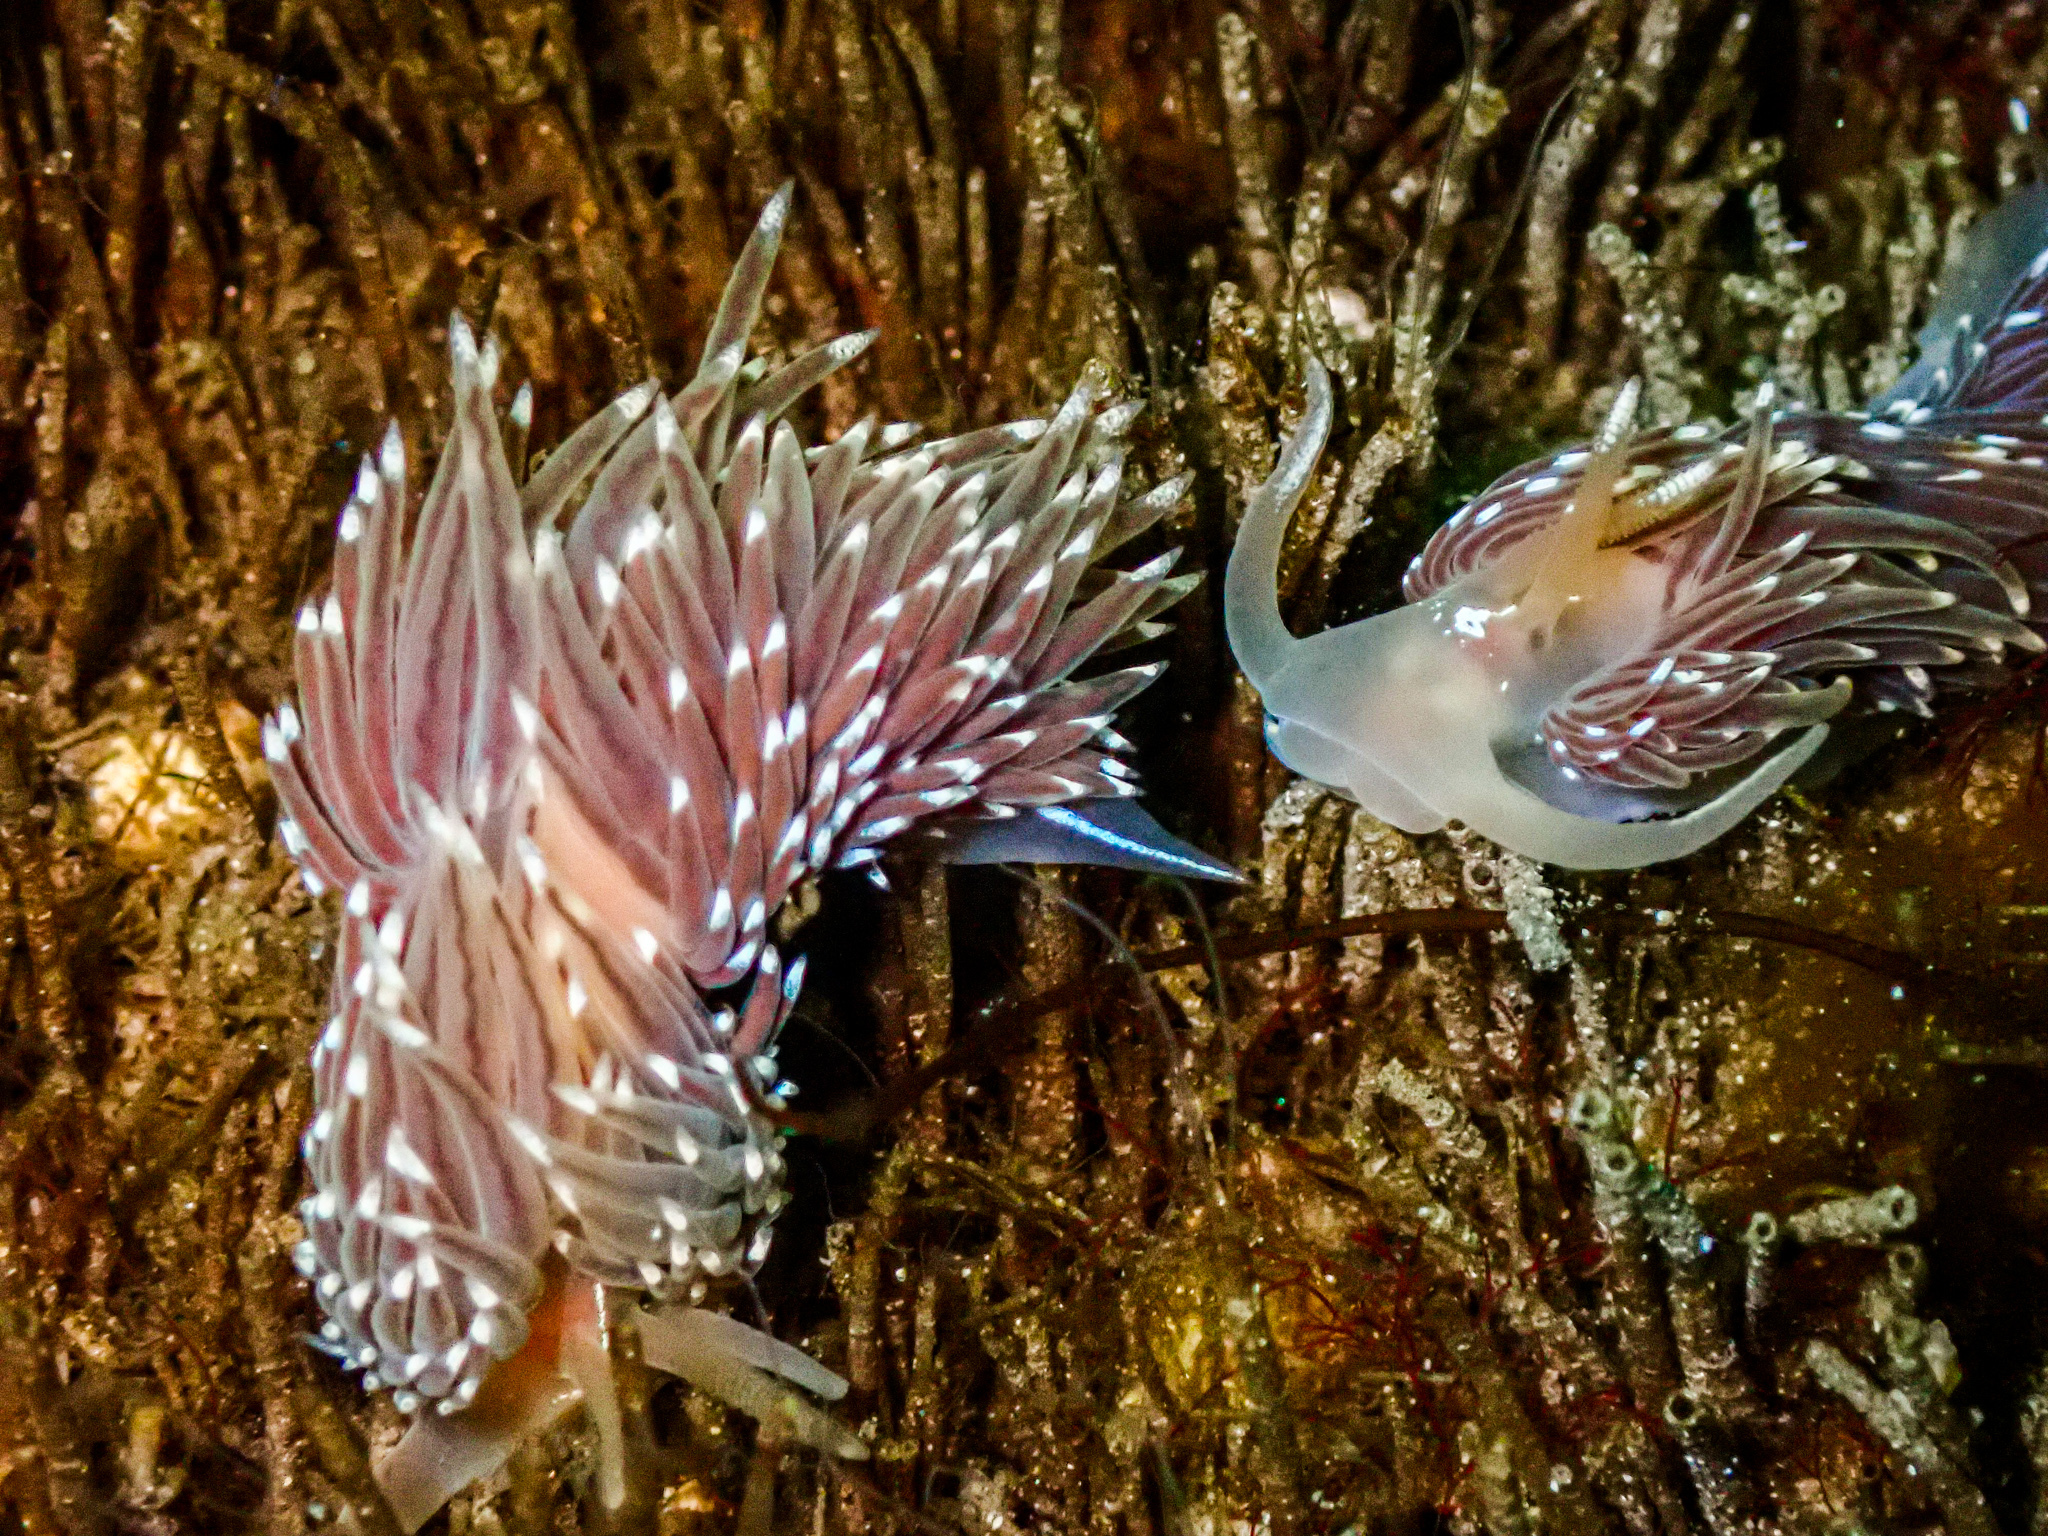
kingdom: Animalia
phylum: Mollusca
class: Gastropoda
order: Nudibranchia
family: Facelinidae
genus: Facelina
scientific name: Facelina bostoniensis
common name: Boston facelina
